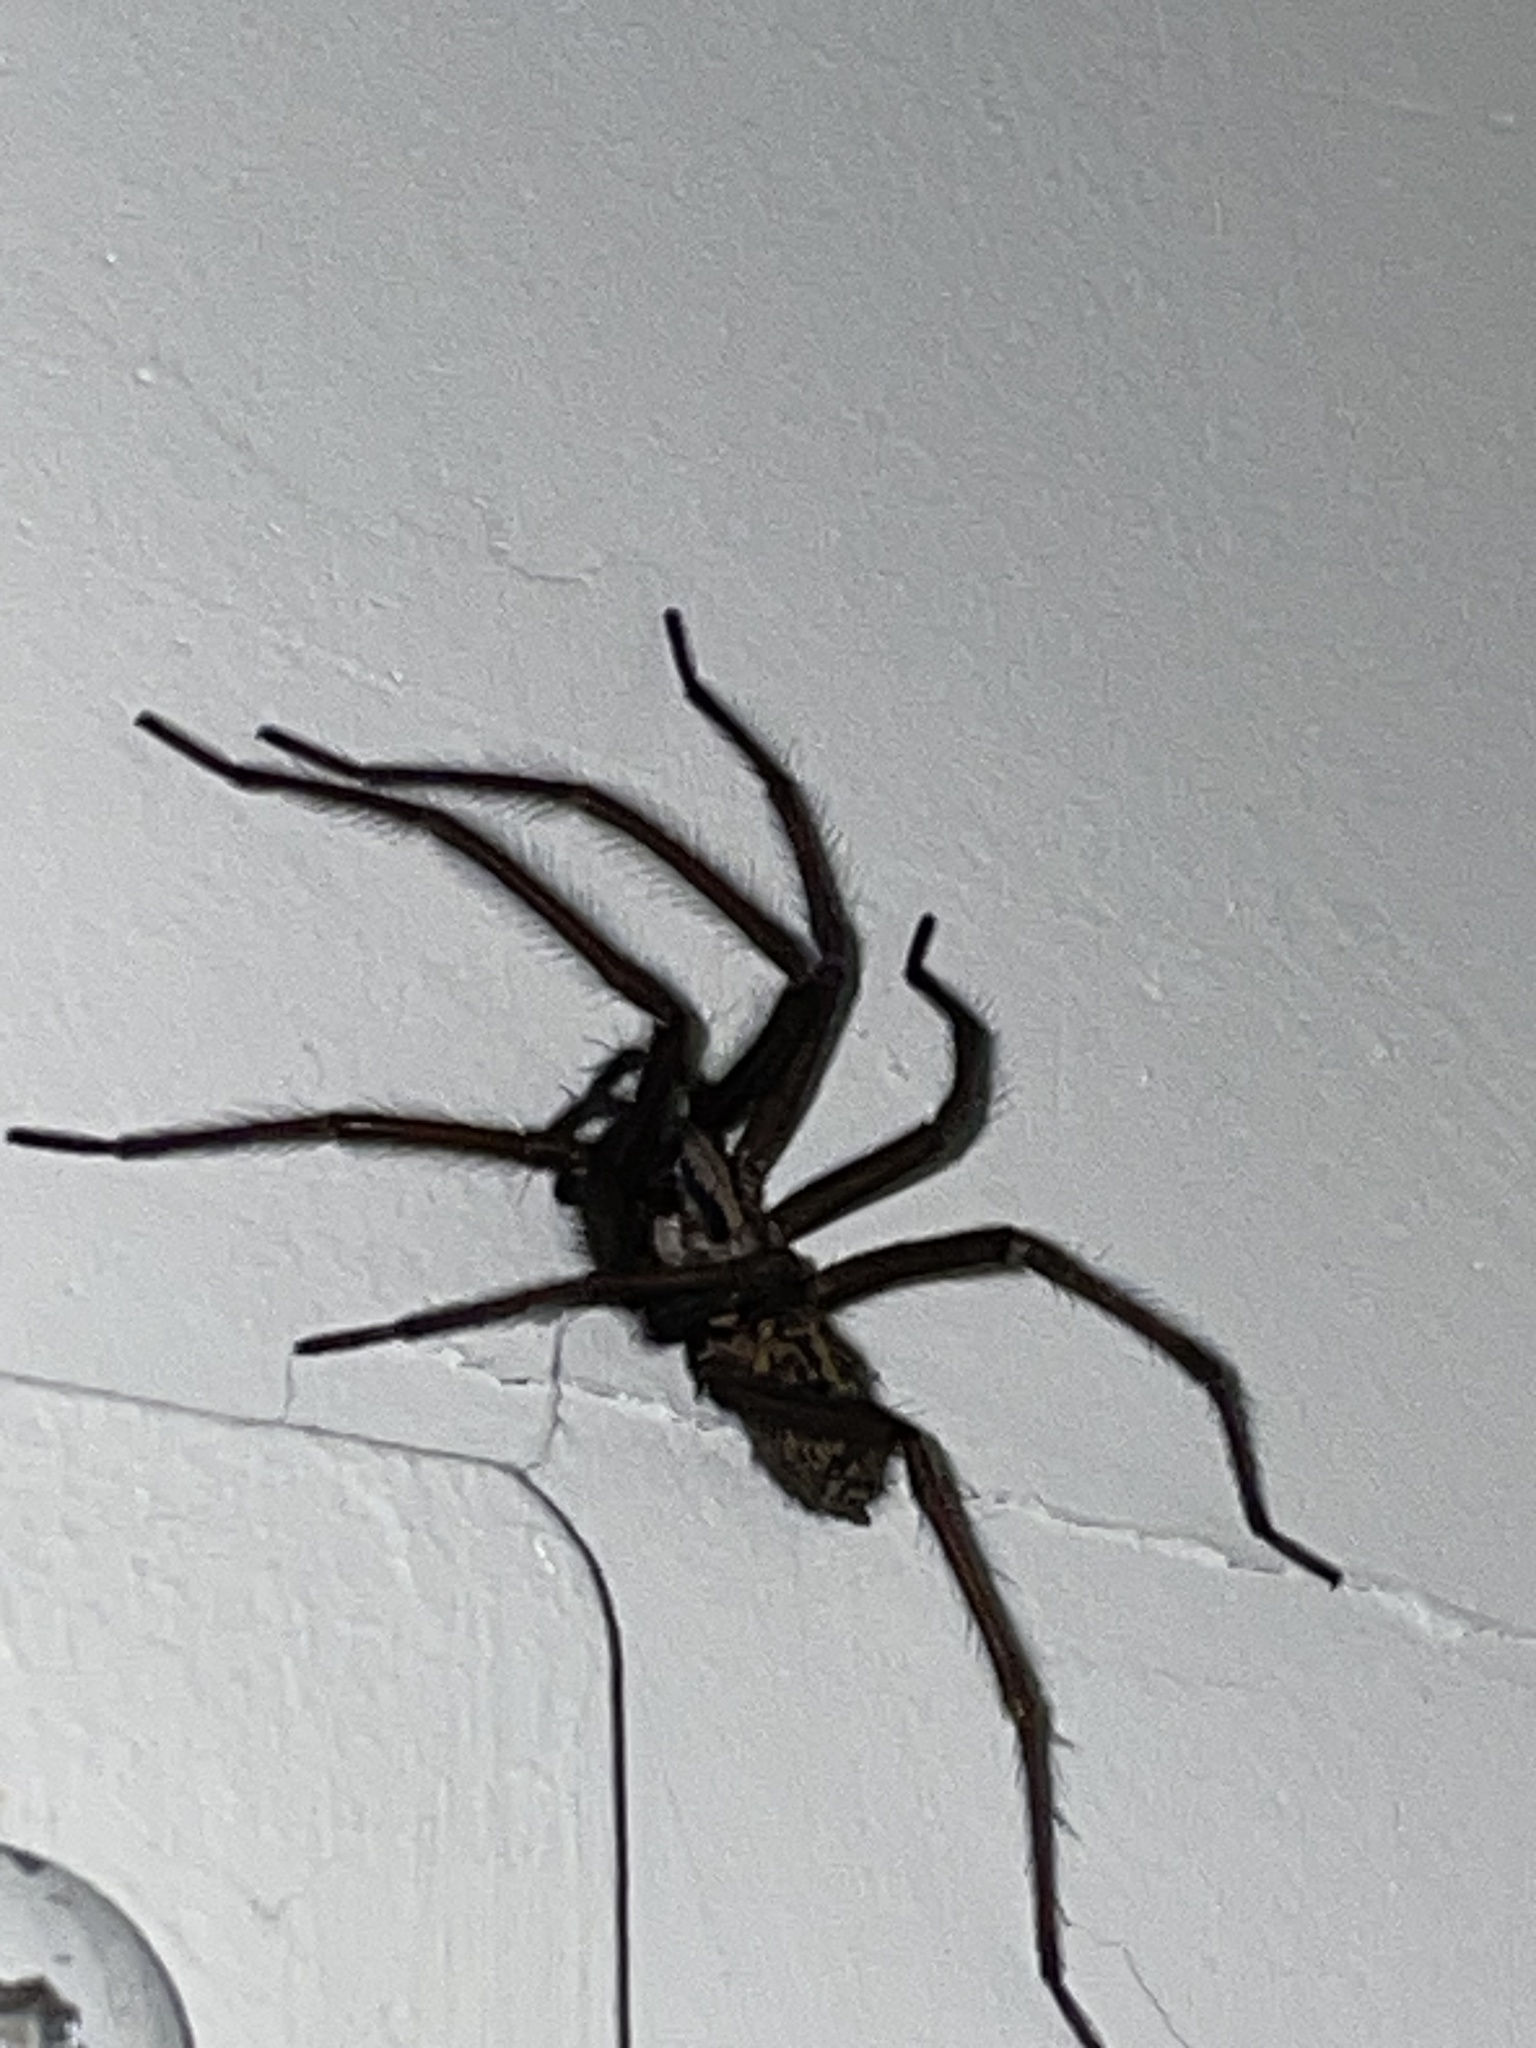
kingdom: Animalia
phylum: Arthropoda
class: Arachnida
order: Araneae
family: Agelenidae
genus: Eratigena
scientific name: Eratigena duellica
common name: Giant house spider
